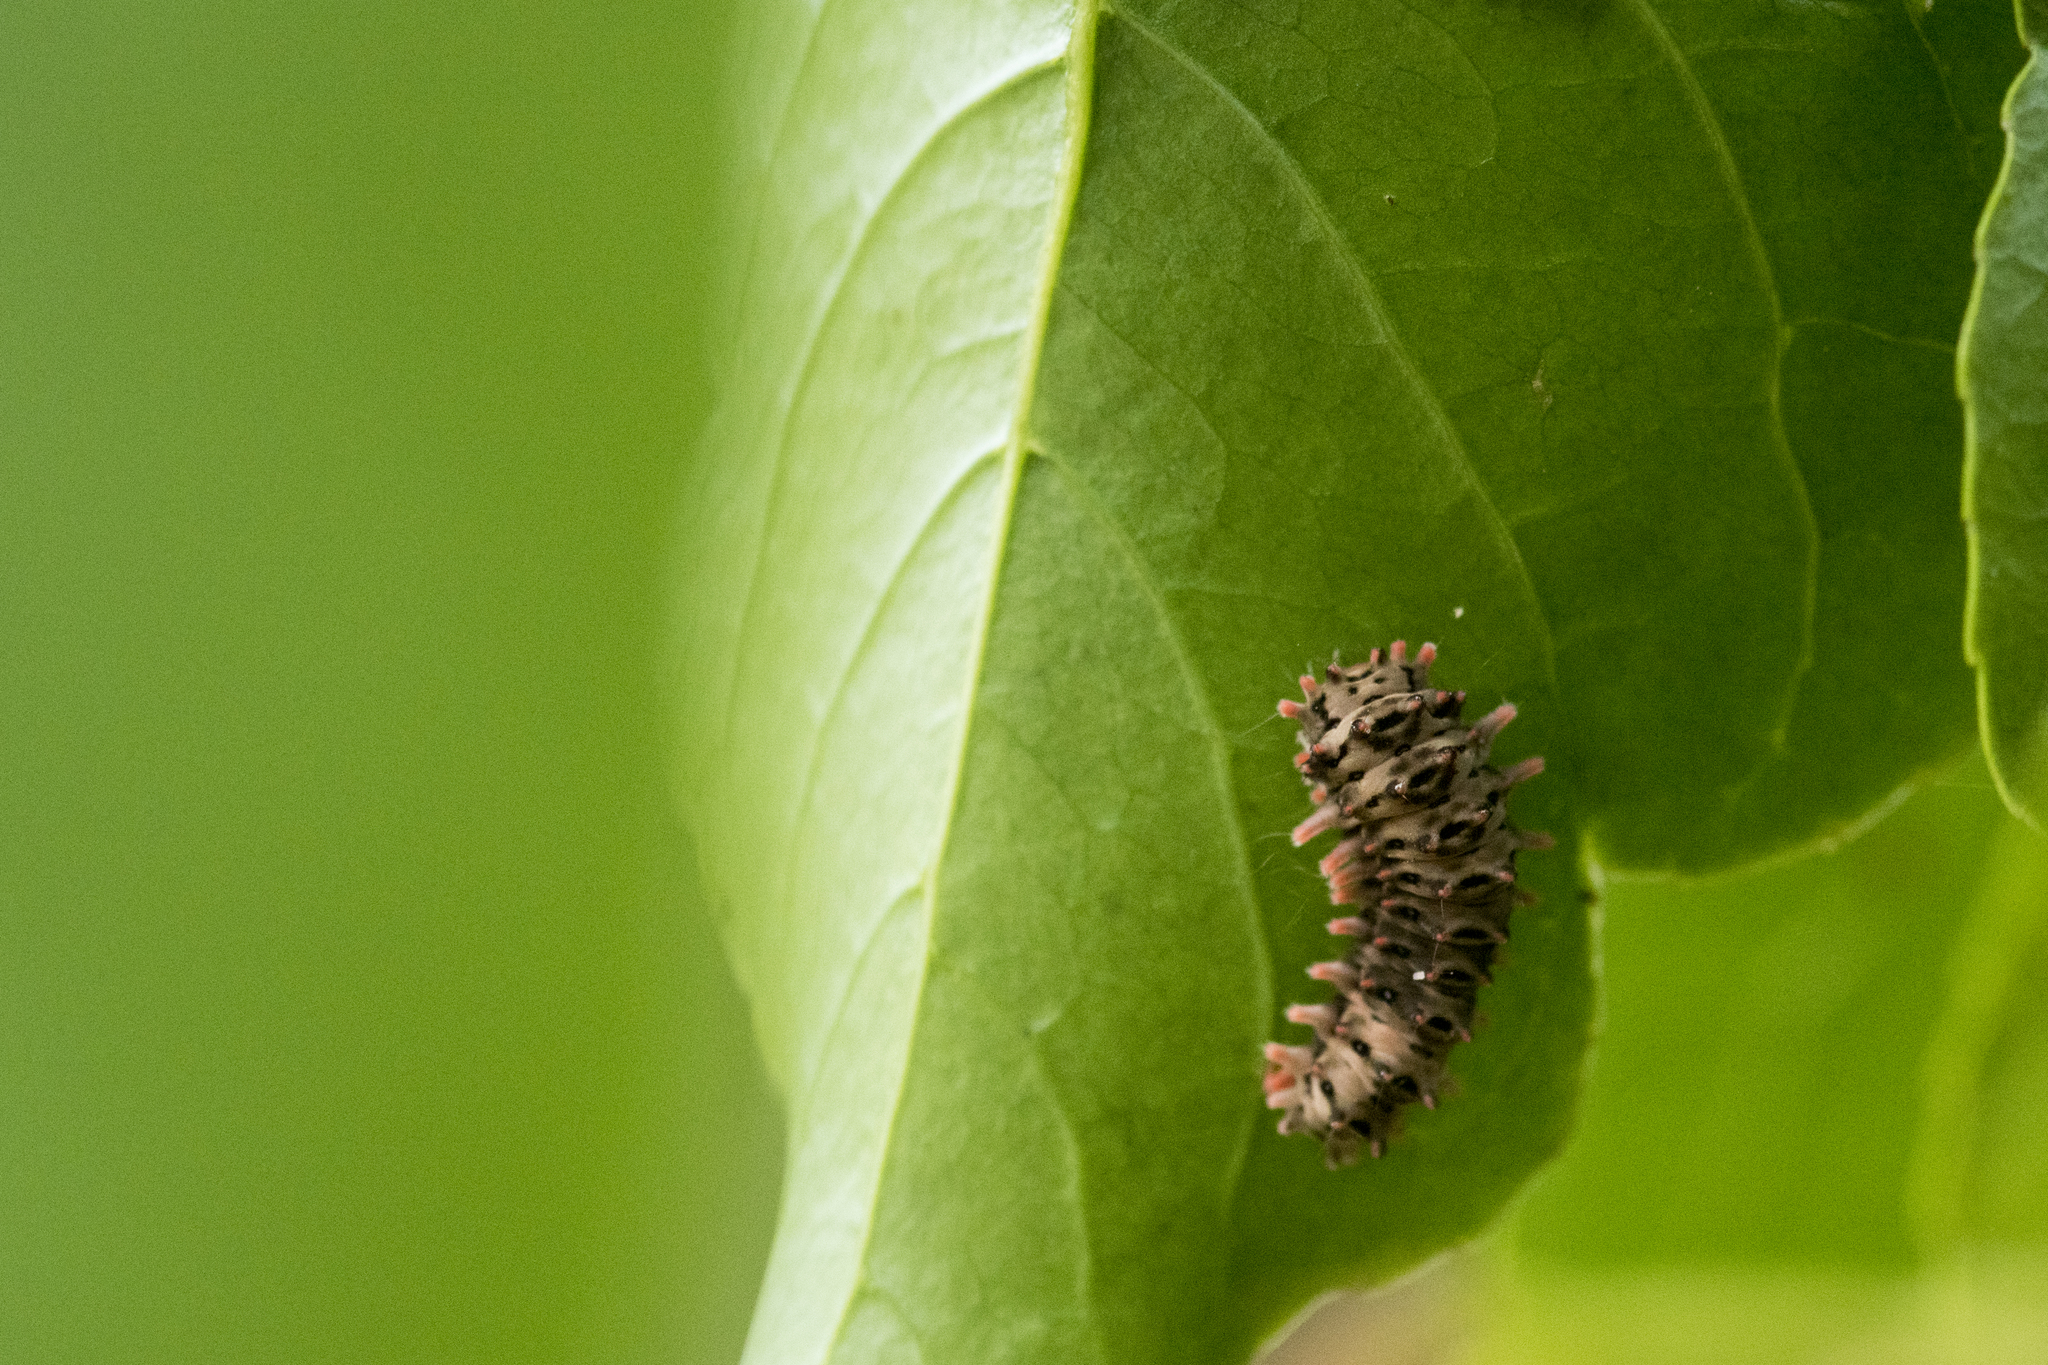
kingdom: Animalia
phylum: Arthropoda
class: Insecta
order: Lepidoptera
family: Zygaenidae
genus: Histia
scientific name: Histia flabellicornis
